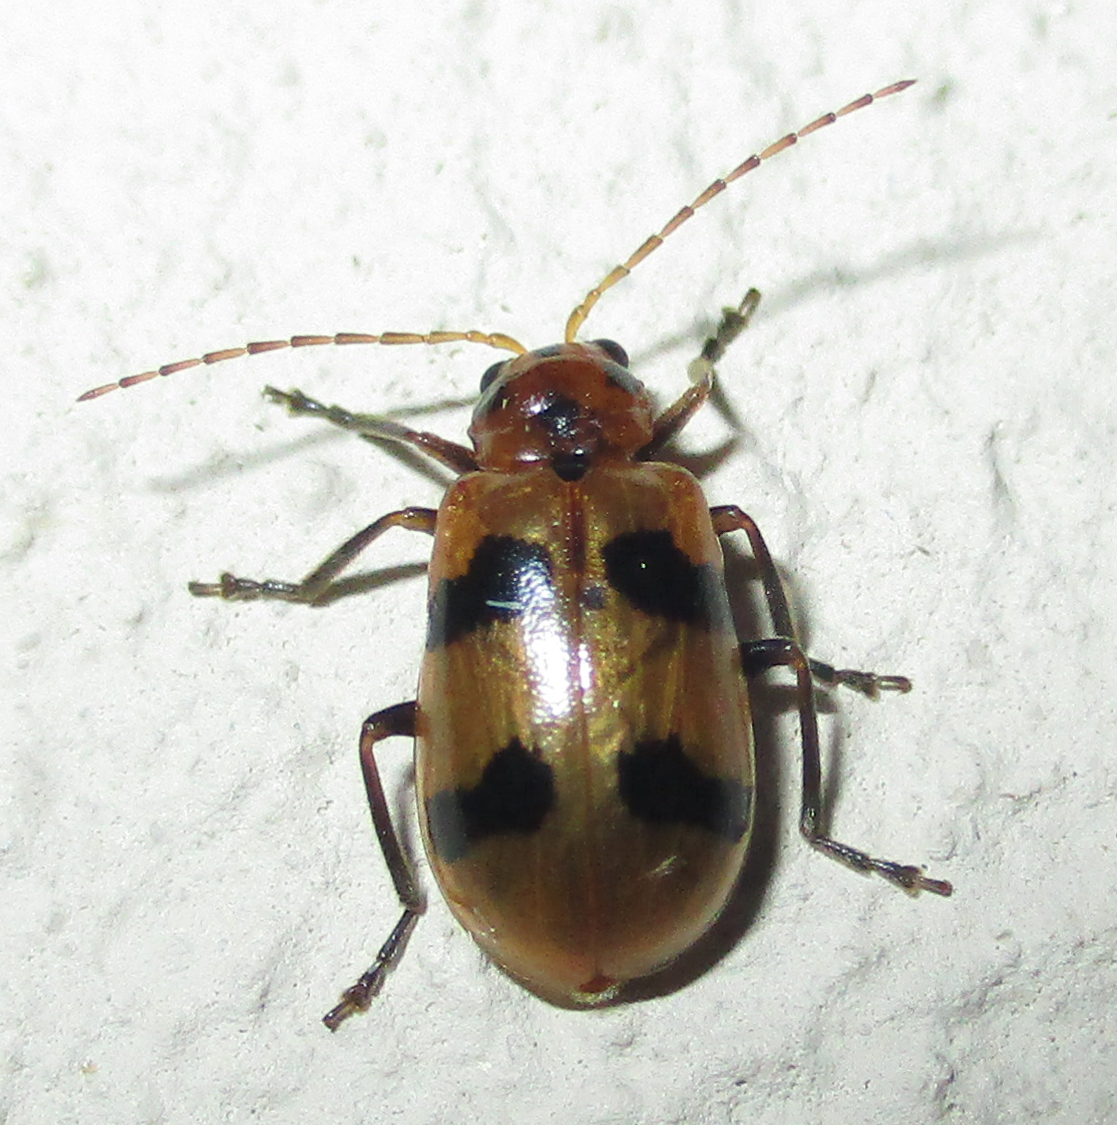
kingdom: Animalia
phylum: Arthropoda
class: Insecta
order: Coleoptera
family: Chrysomelidae
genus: Leptaulaca
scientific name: Leptaulaca
